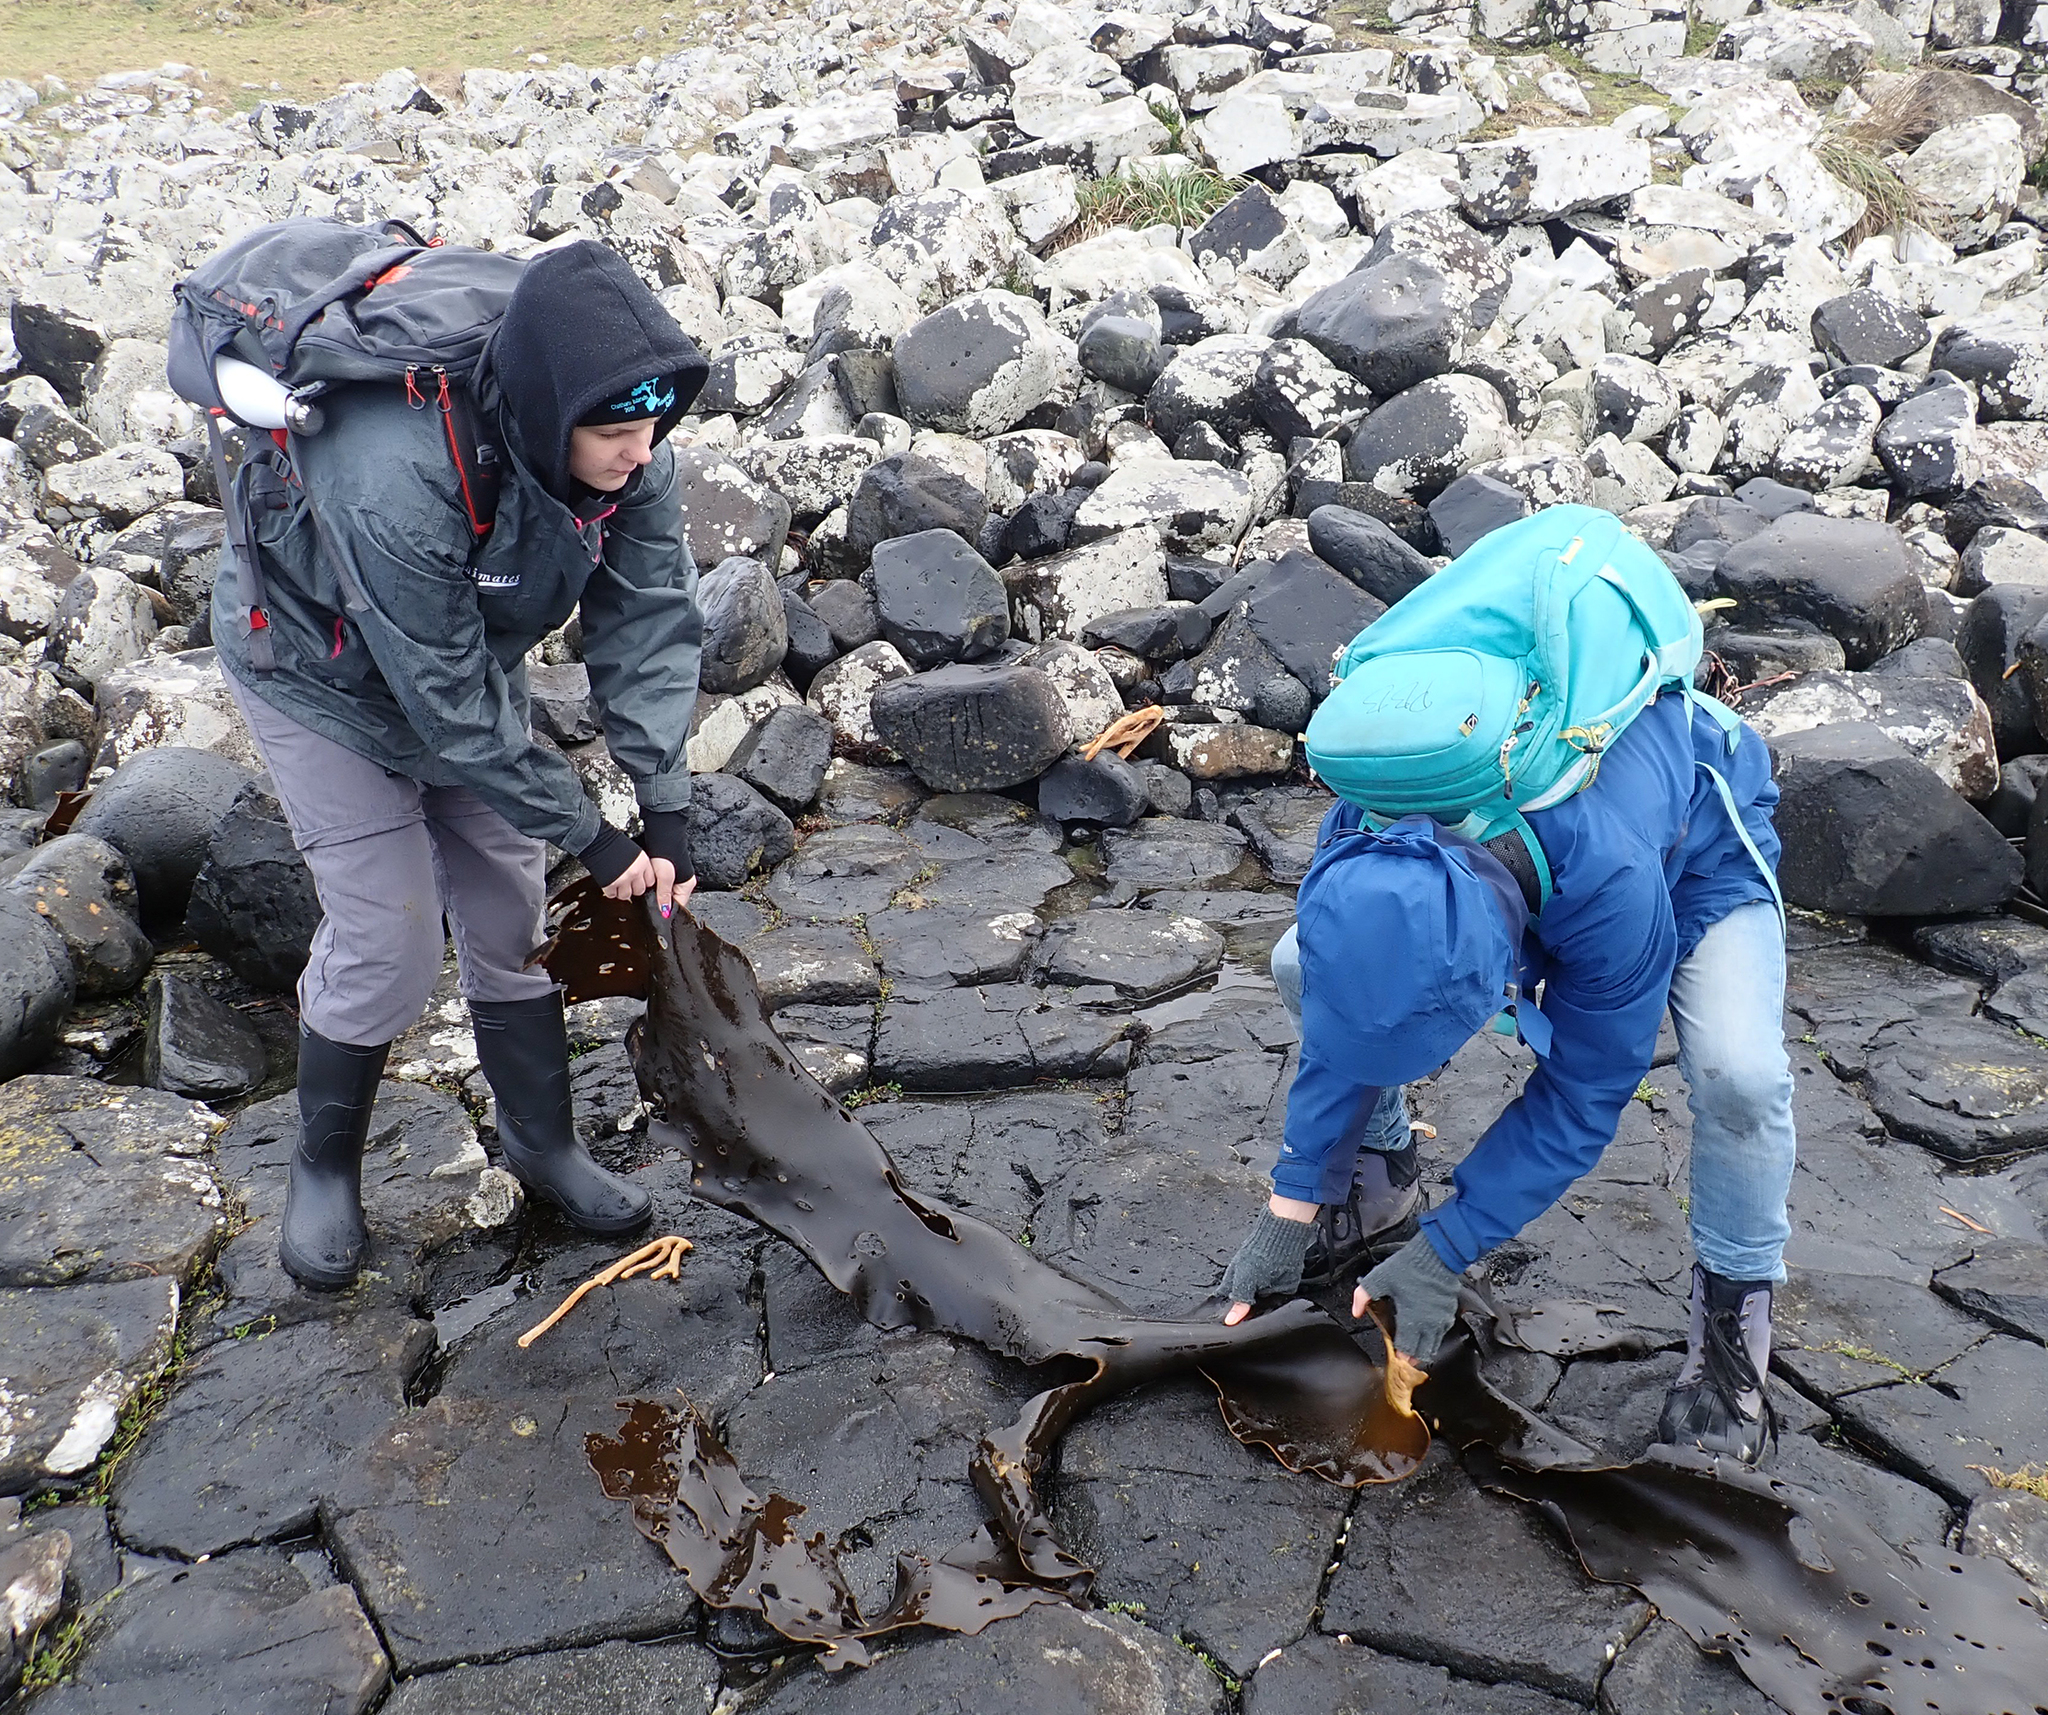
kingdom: Chromista
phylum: Ochrophyta
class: Phaeophyceae
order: Fucales
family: Durvillaeaceae
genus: Durvillaea
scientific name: Durvillaea chathamensis
